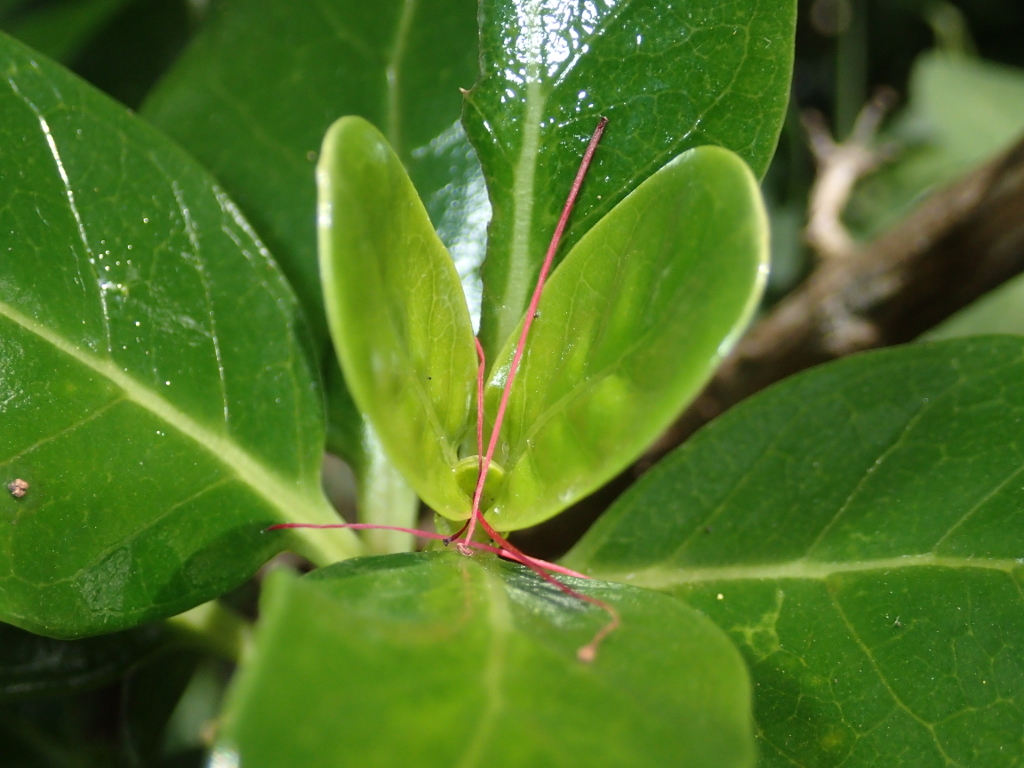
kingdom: Plantae
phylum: Tracheophyta
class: Magnoliopsida
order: Gentianales
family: Rubiaceae
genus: Coprosma
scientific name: Coprosma repens
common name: Tree bedstraw
